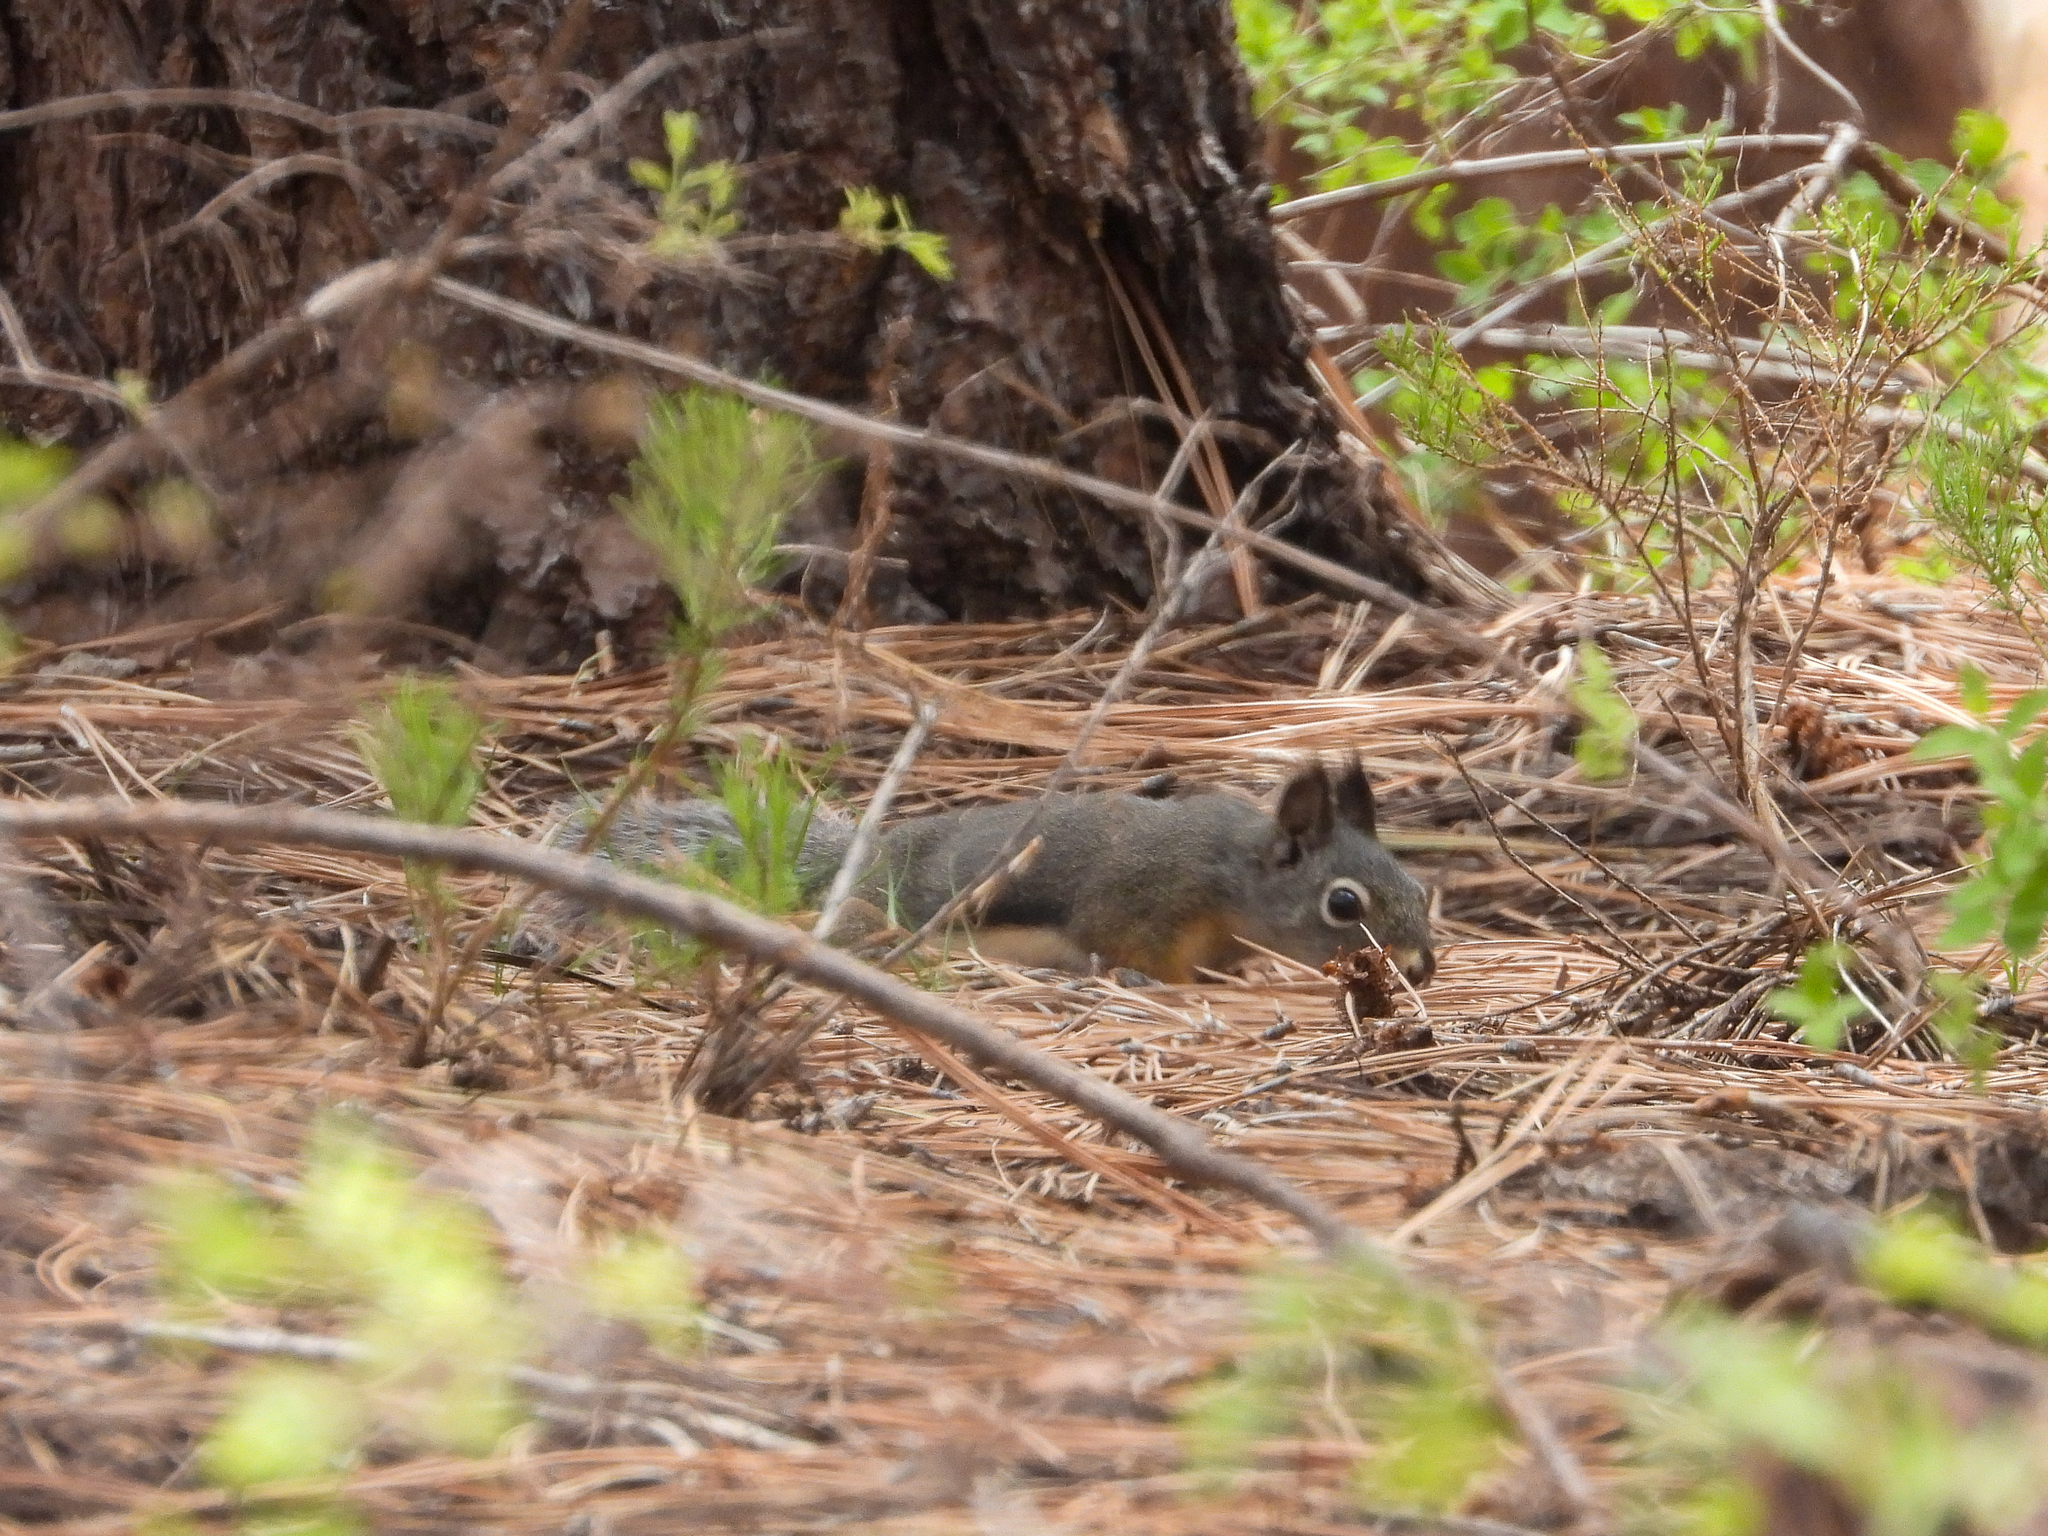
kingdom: Animalia
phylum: Chordata
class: Mammalia
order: Rodentia
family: Sciuridae
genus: Tamiasciurus
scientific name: Tamiasciurus douglasii
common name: Douglas's squirrel
